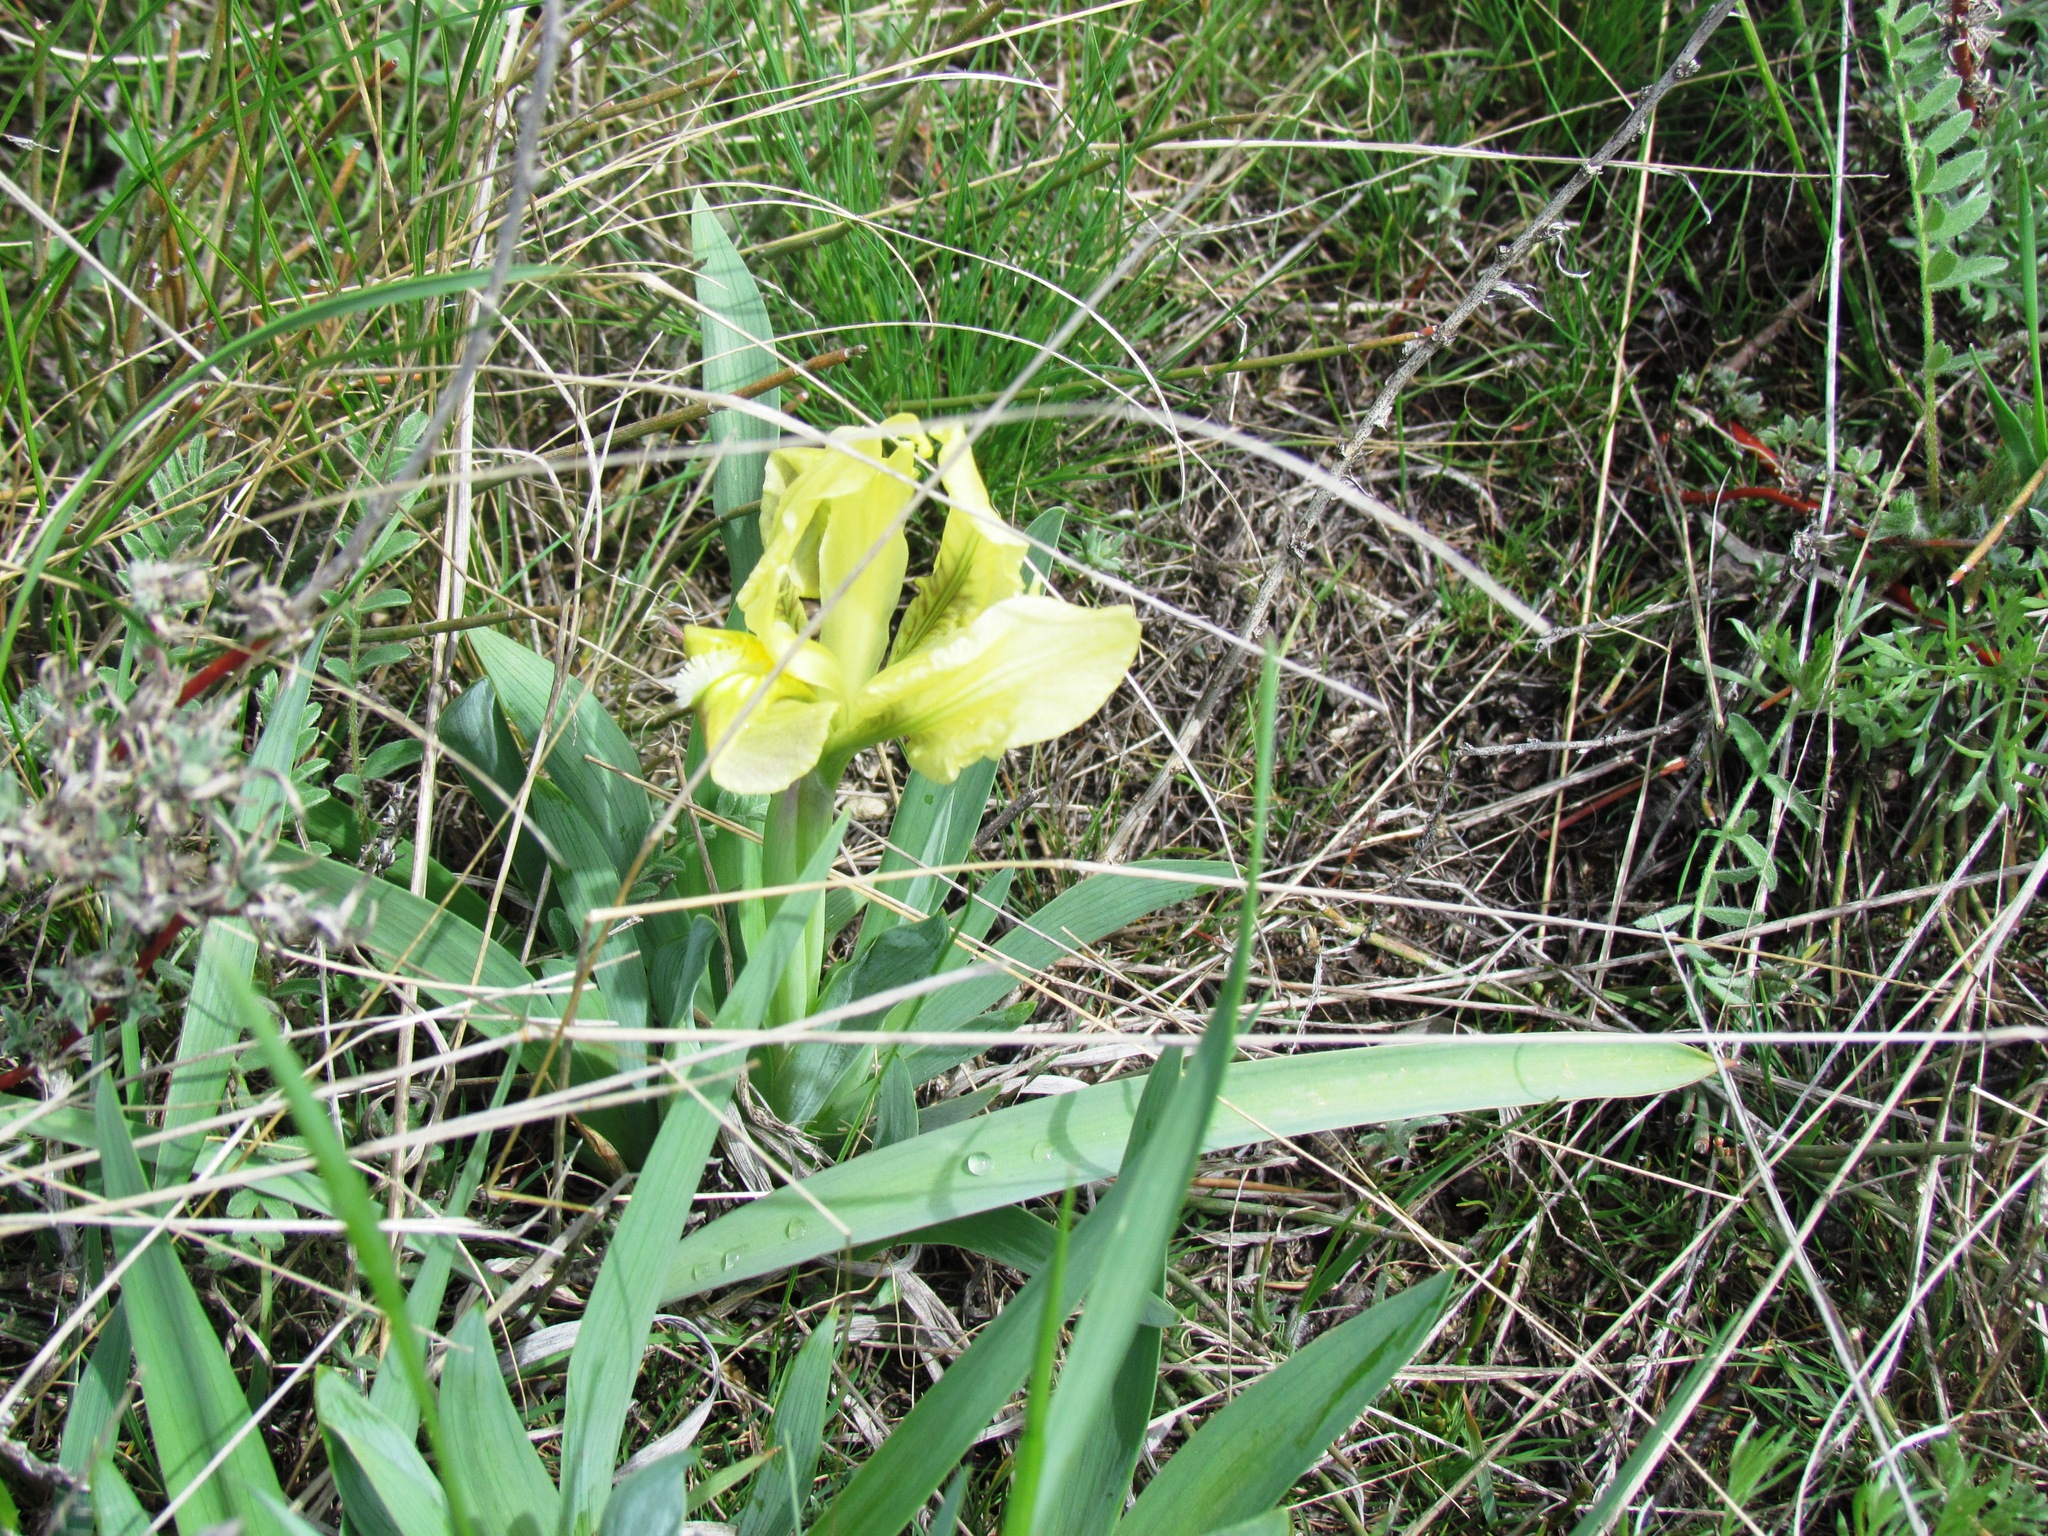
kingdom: Plantae
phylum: Tracheophyta
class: Liliopsida
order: Asparagales
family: Iridaceae
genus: Iris
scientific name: Iris pumila
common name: Dwarf iris
